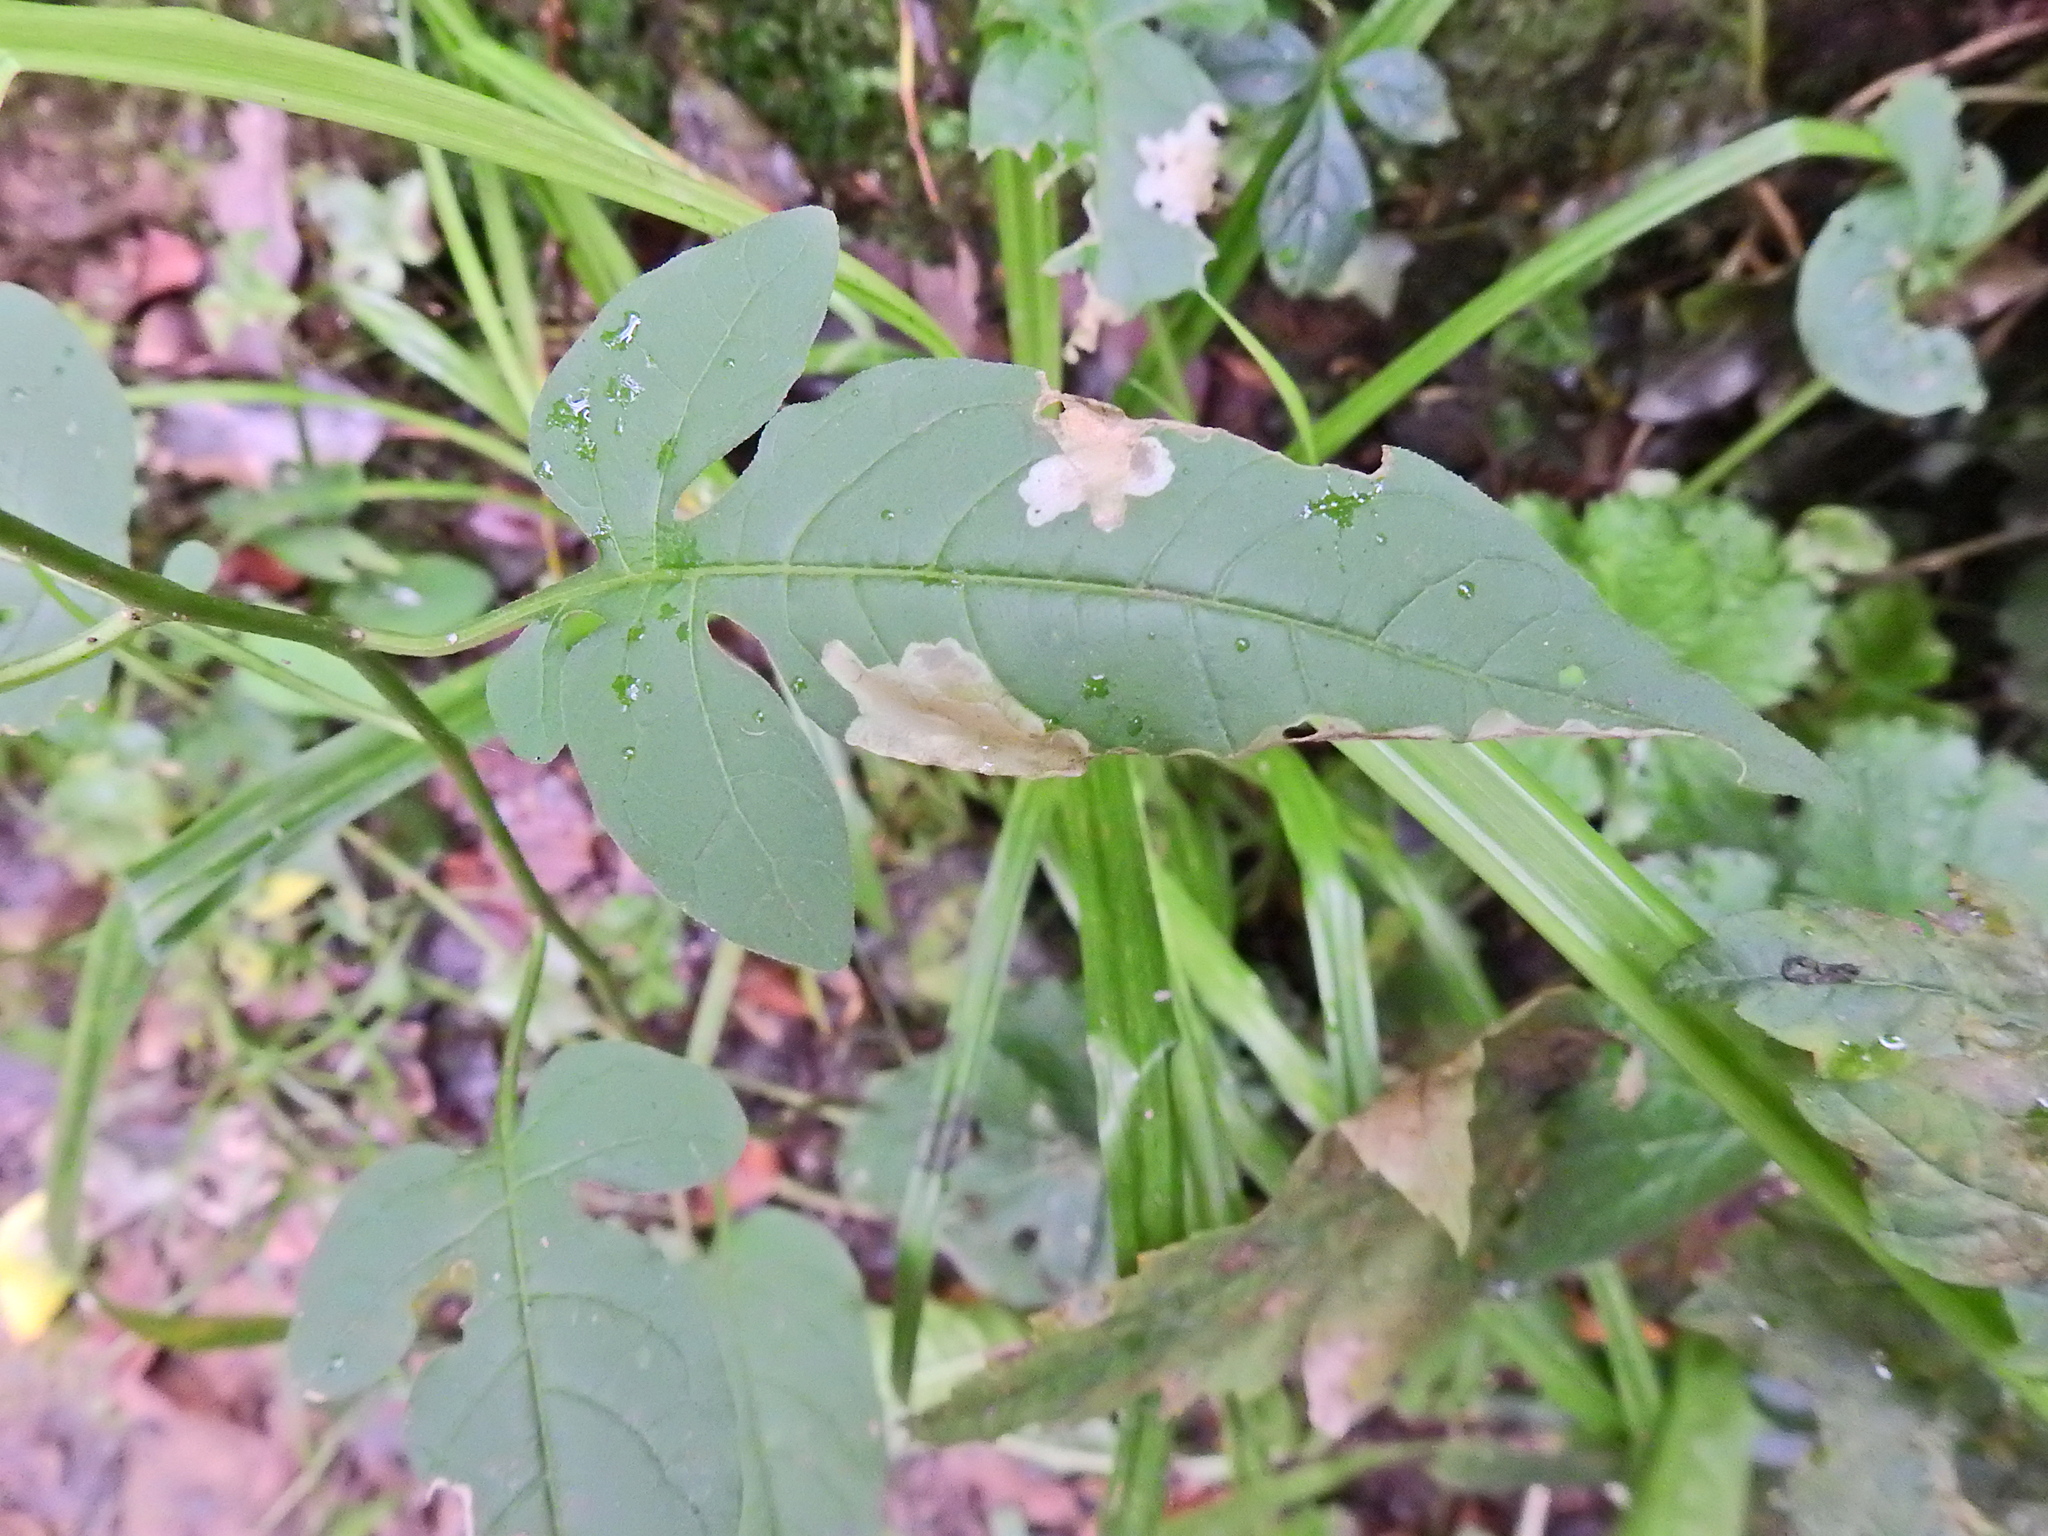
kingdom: Animalia
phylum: Arthropoda
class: Insecta
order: Lepidoptera
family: Glyphipterigidae
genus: Acrolepia
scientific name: Acrolepia pygmaeana
